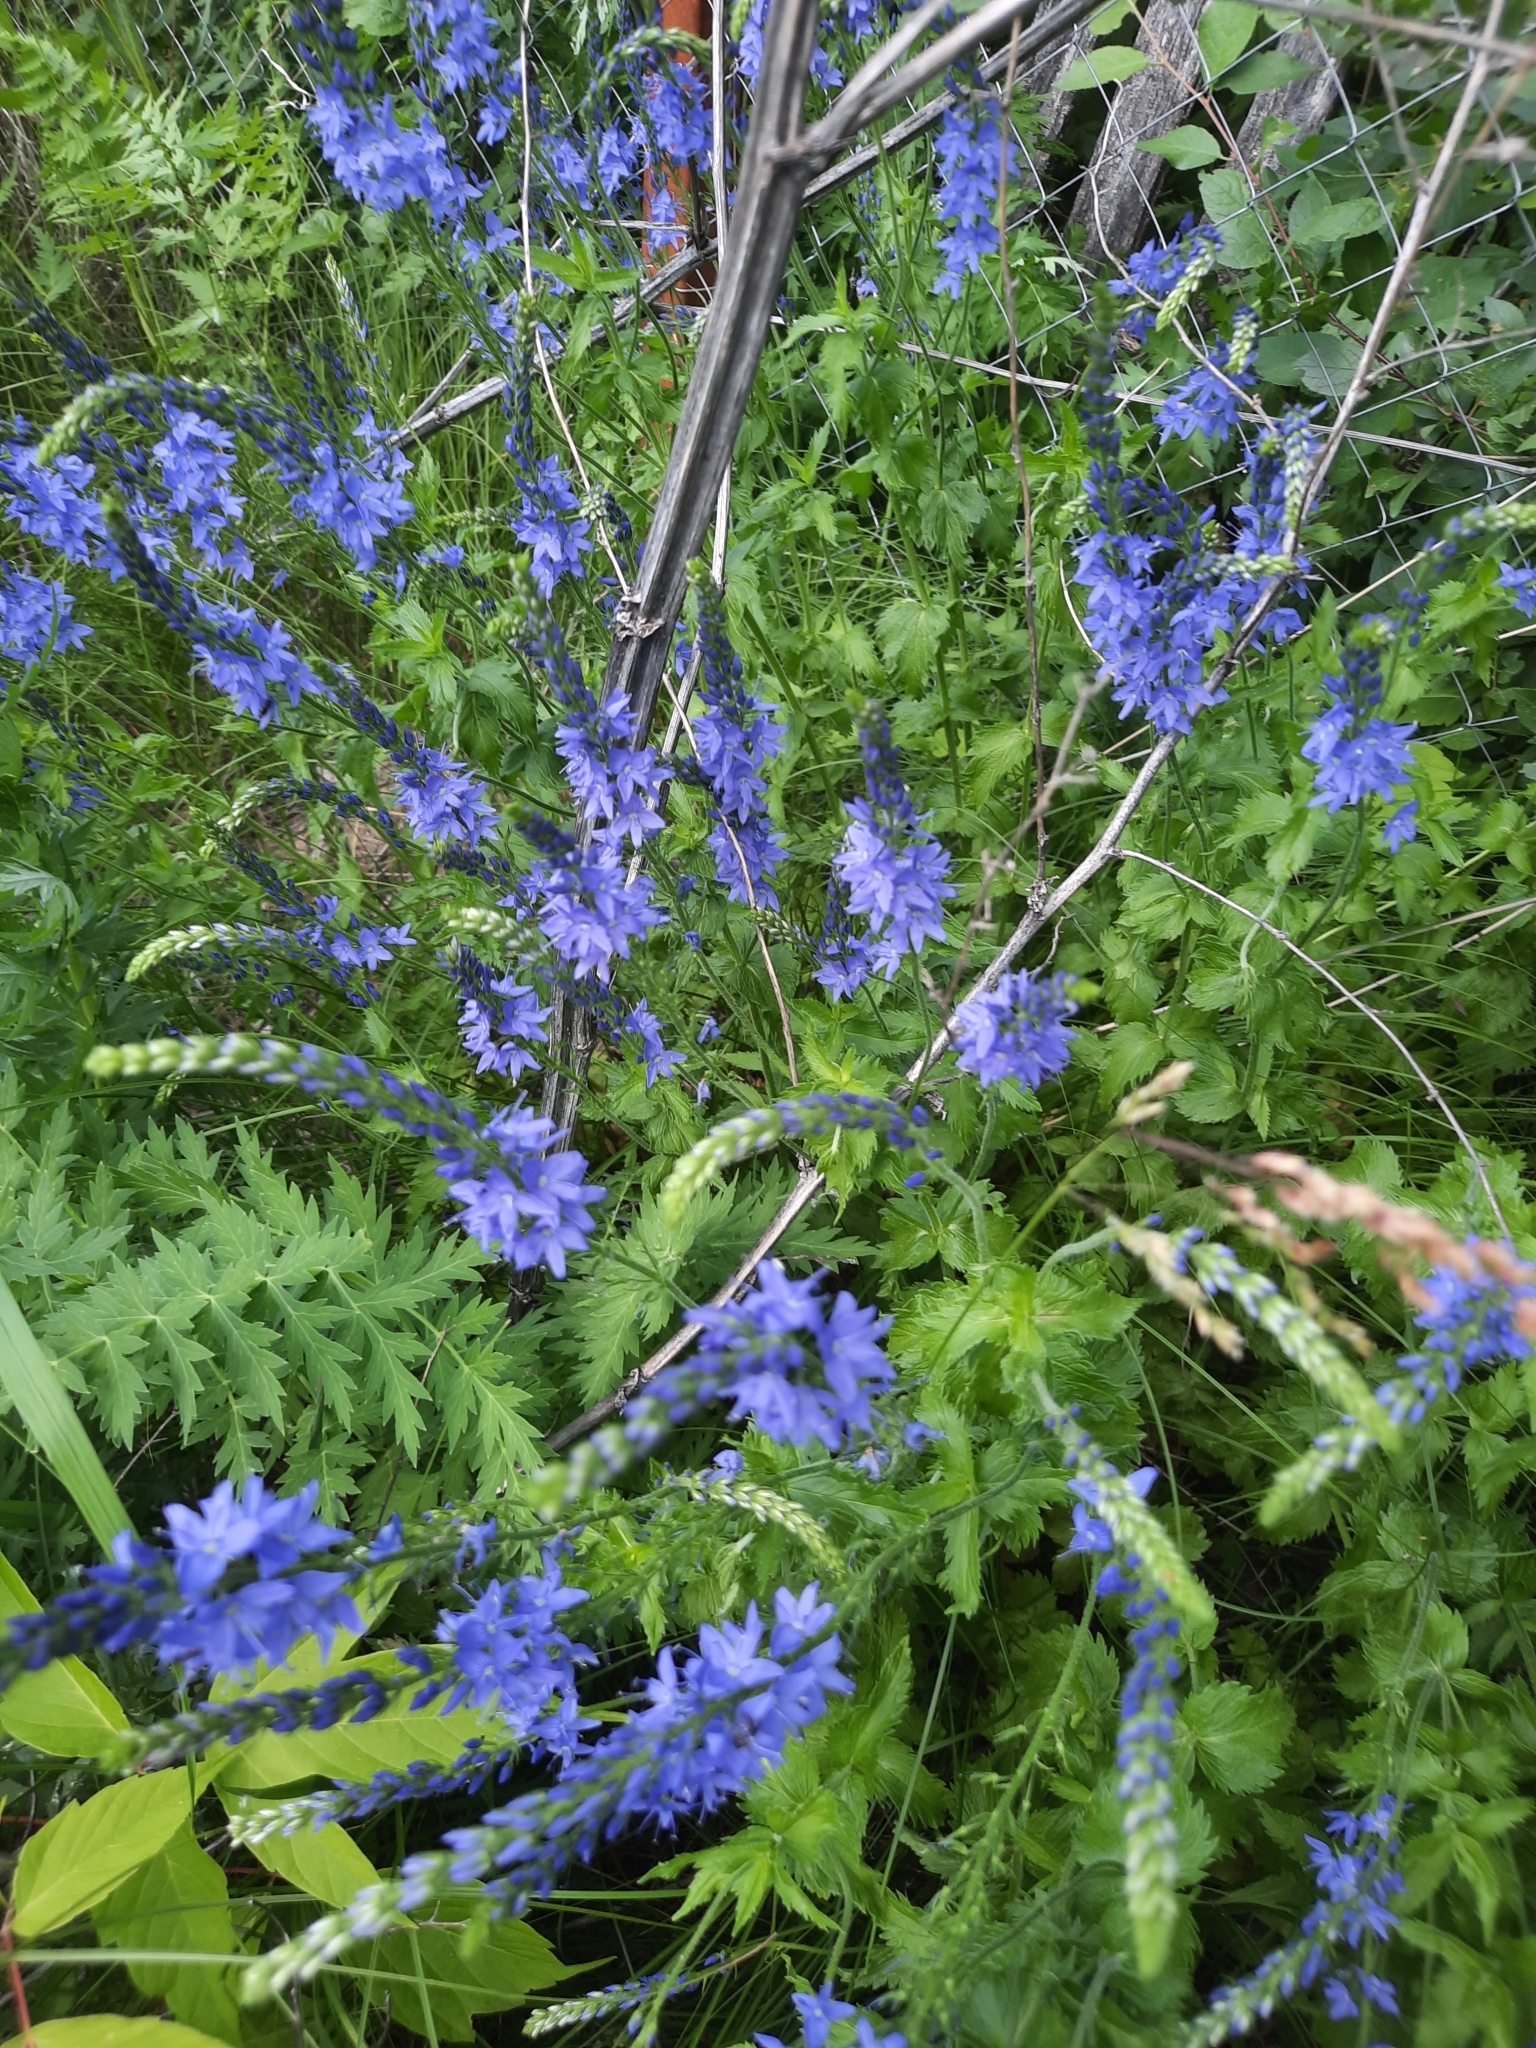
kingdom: Plantae
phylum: Tracheophyta
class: Magnoliopsida
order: Lamiales
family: Plantaginaceae
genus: Veronica
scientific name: Veronica teucrium
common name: Large speedwell
